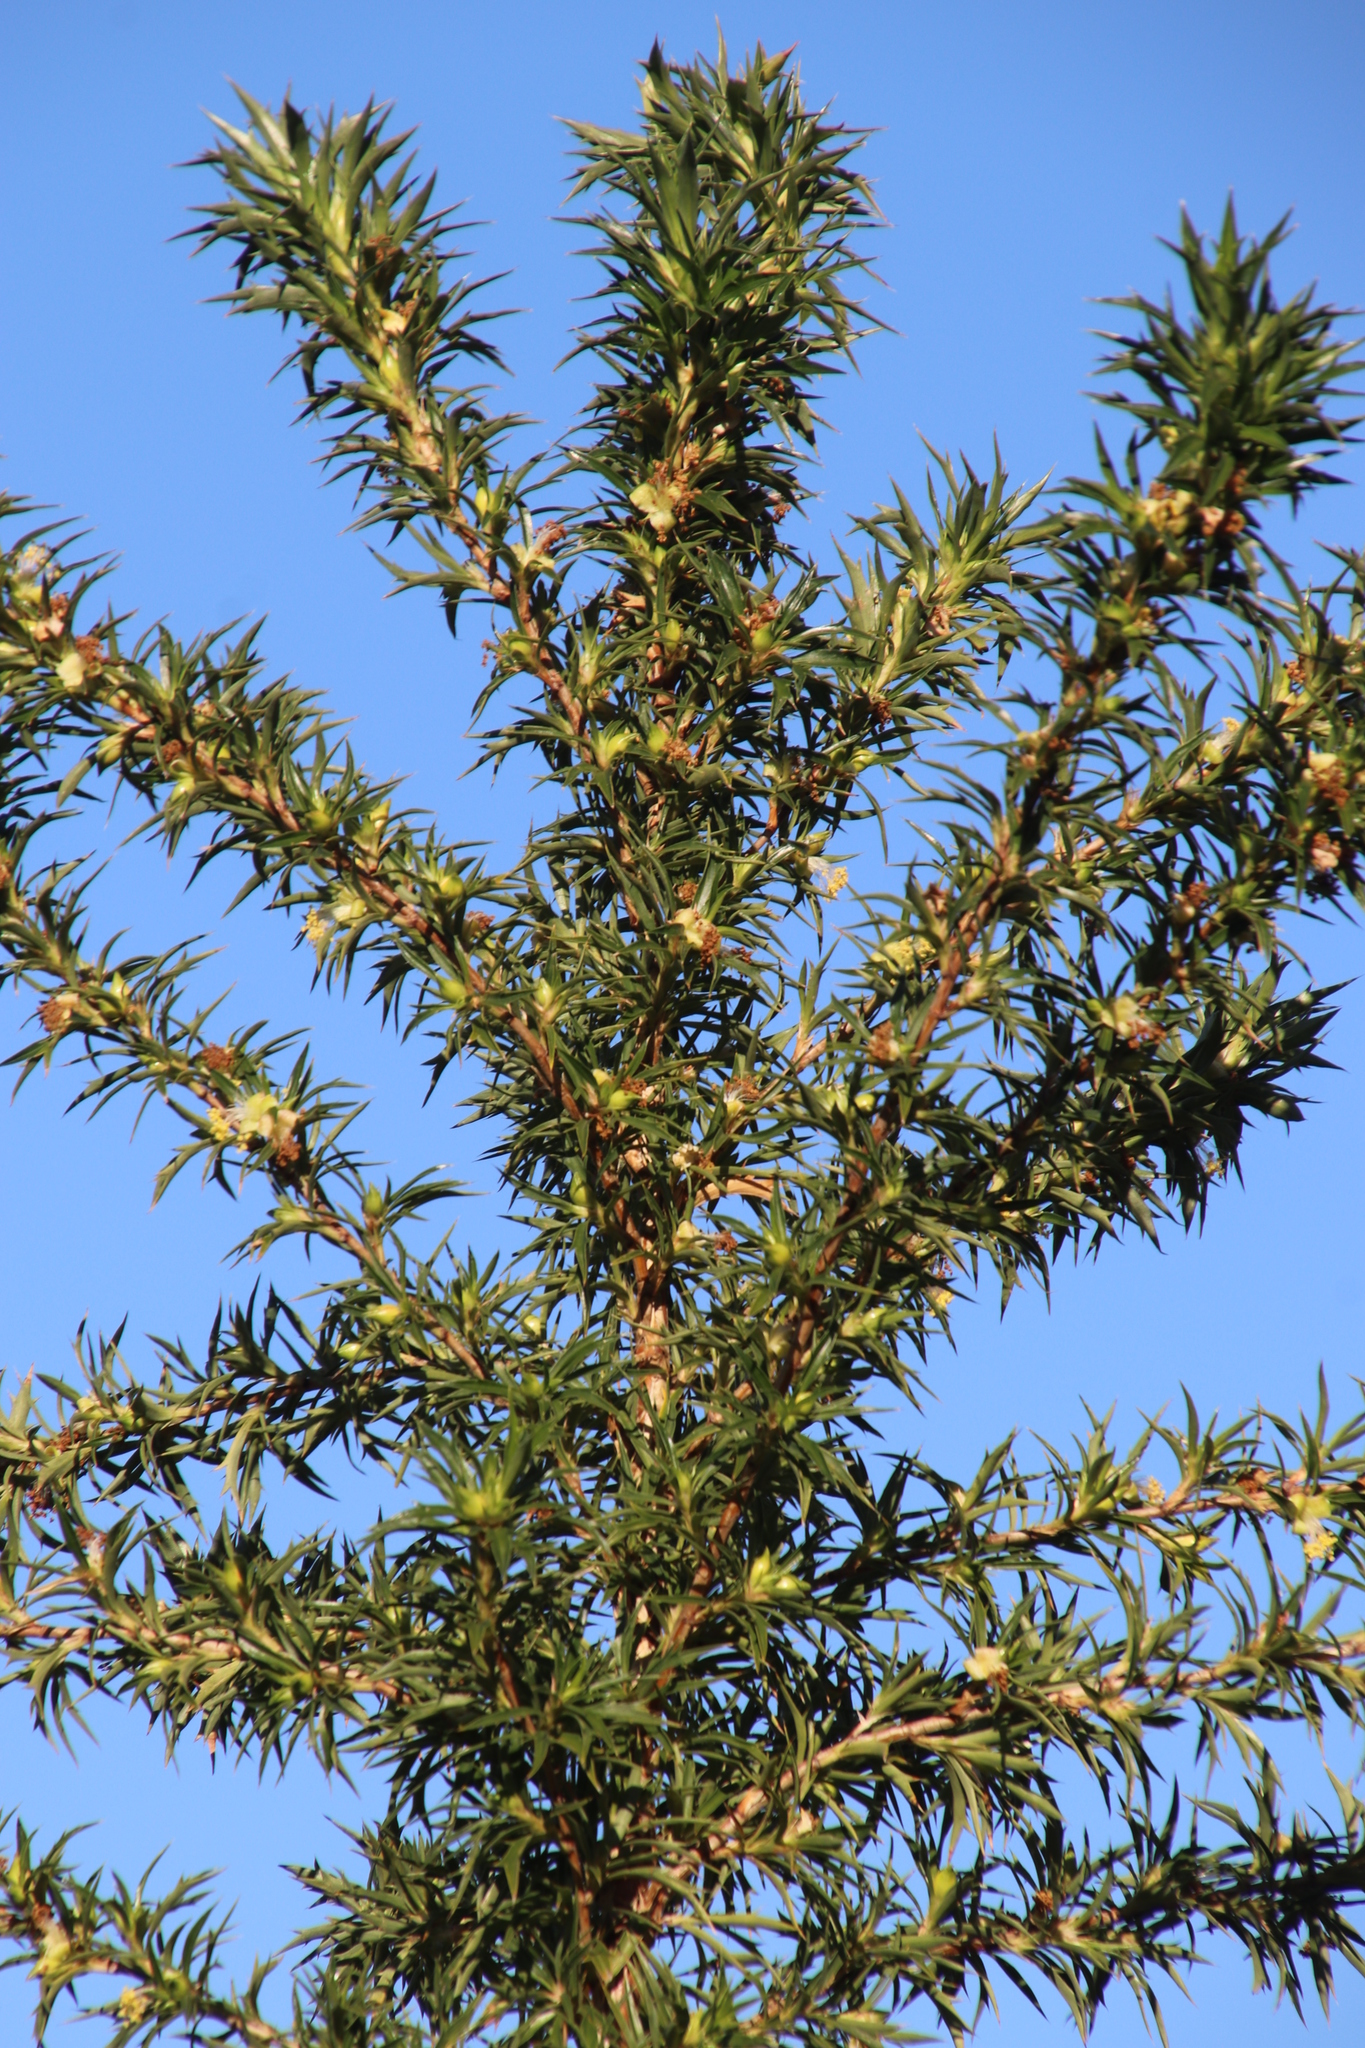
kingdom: Plantae
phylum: Tracheophyta
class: Magnoliopsida
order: Rosales
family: Rosaceae
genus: Cliffortia
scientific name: Cliffortia phillipsii
